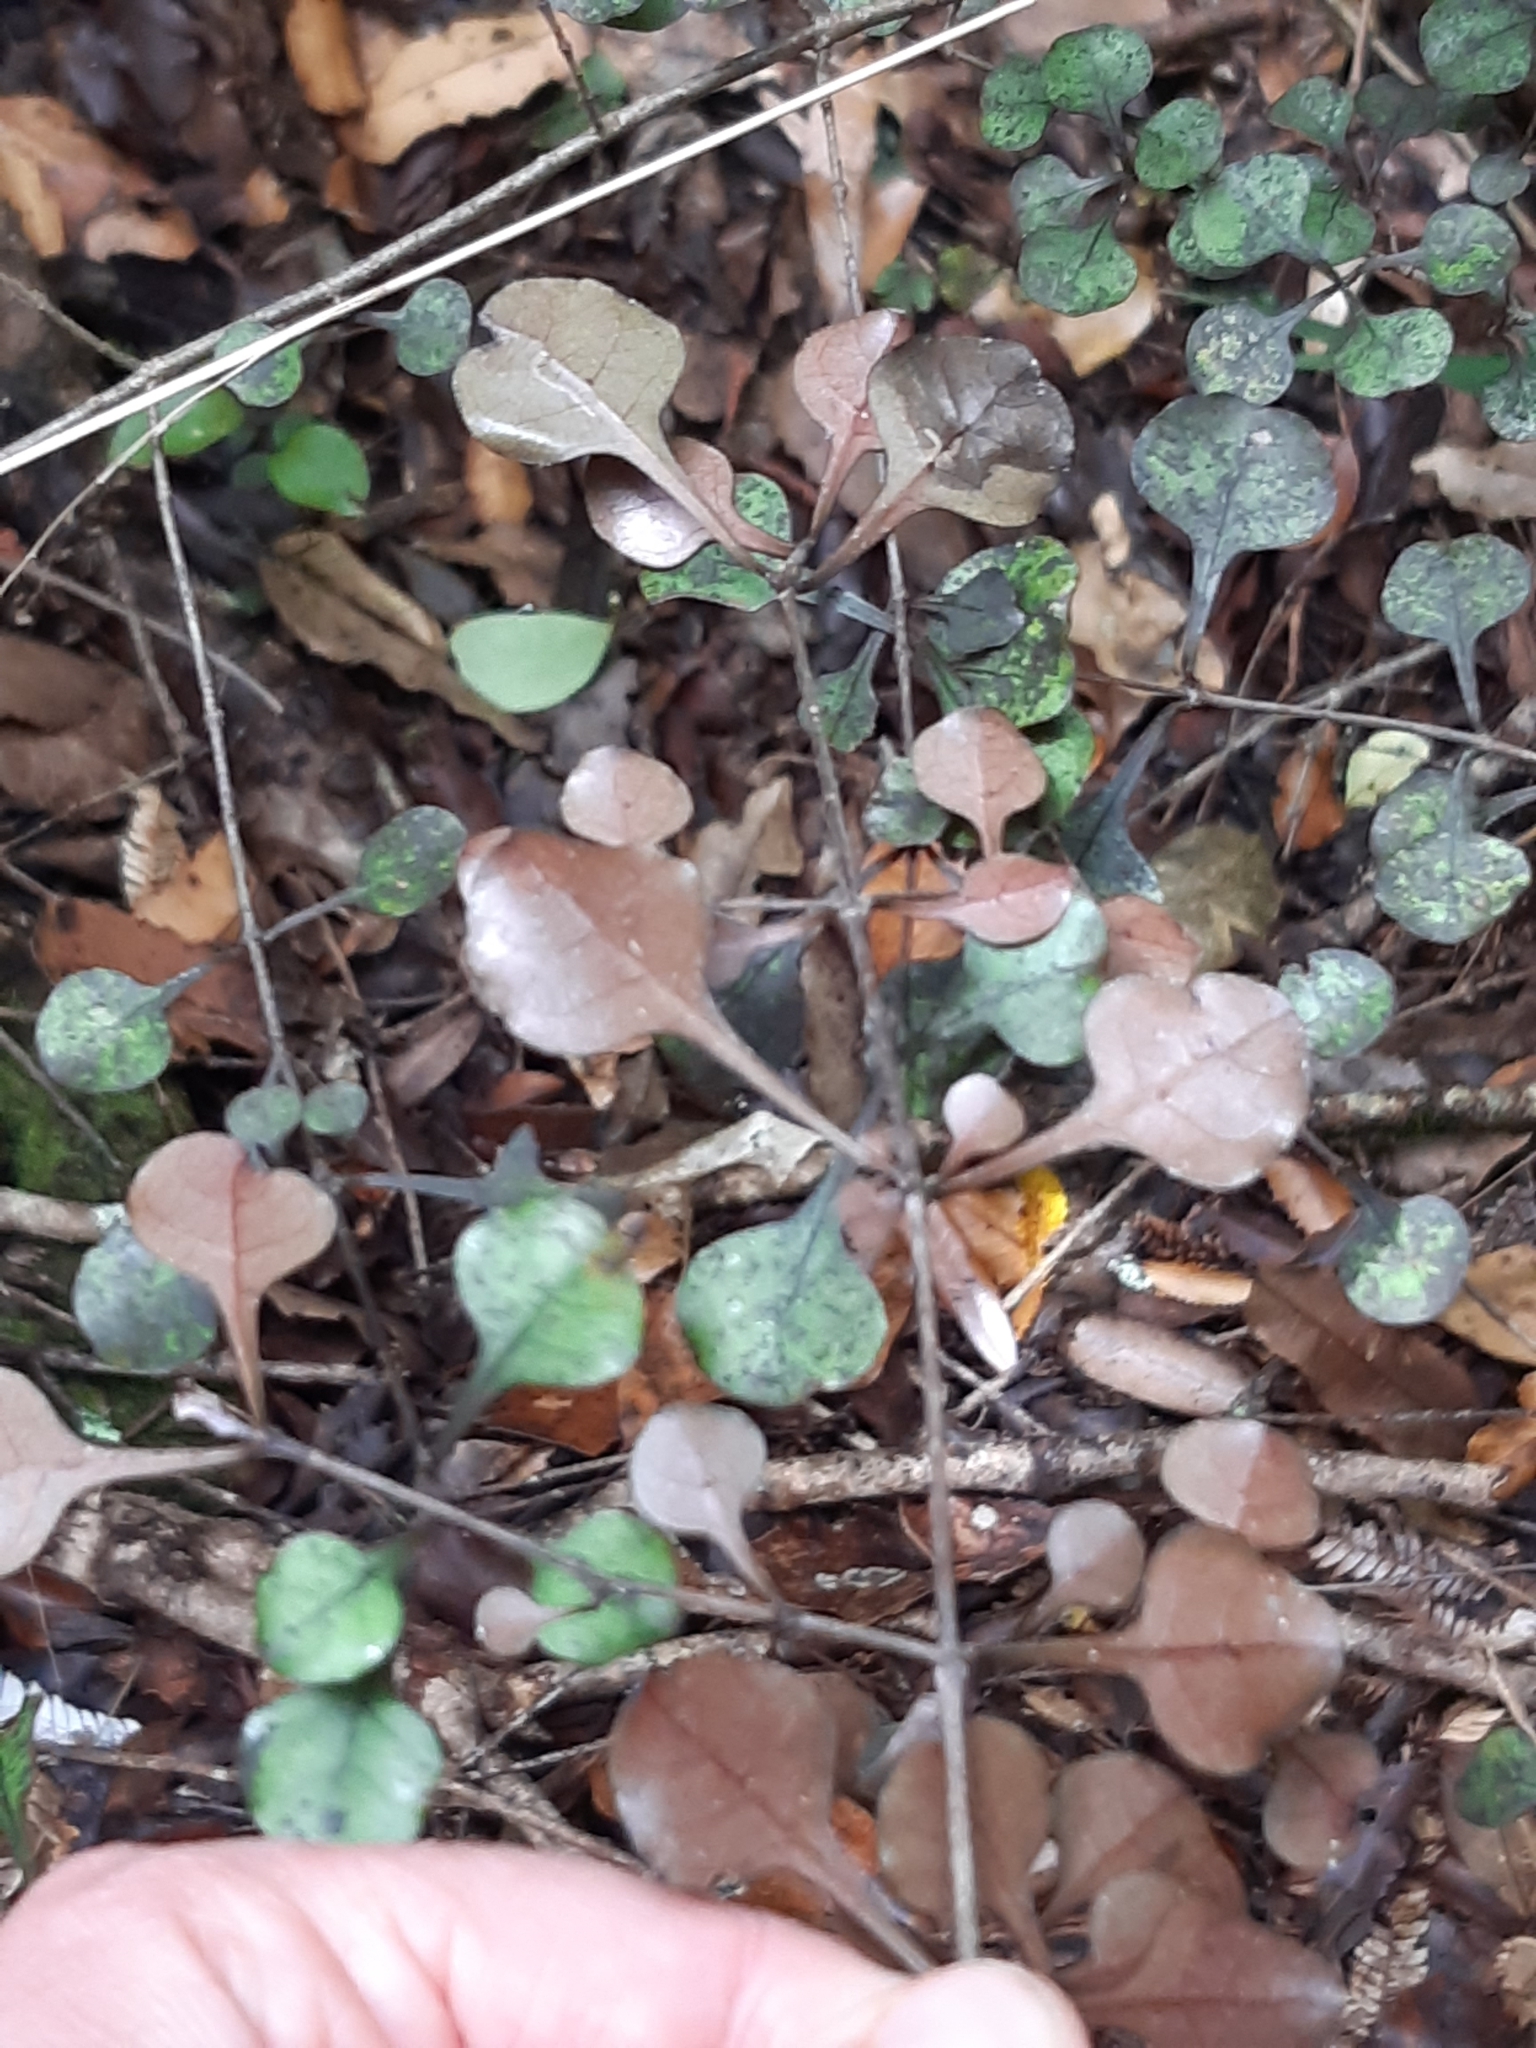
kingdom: Plantae
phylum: Tracheophyta
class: Magnoliopsida
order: Gentianales
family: Rubiaceae
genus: Coprosma
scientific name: Coprosma arborea
